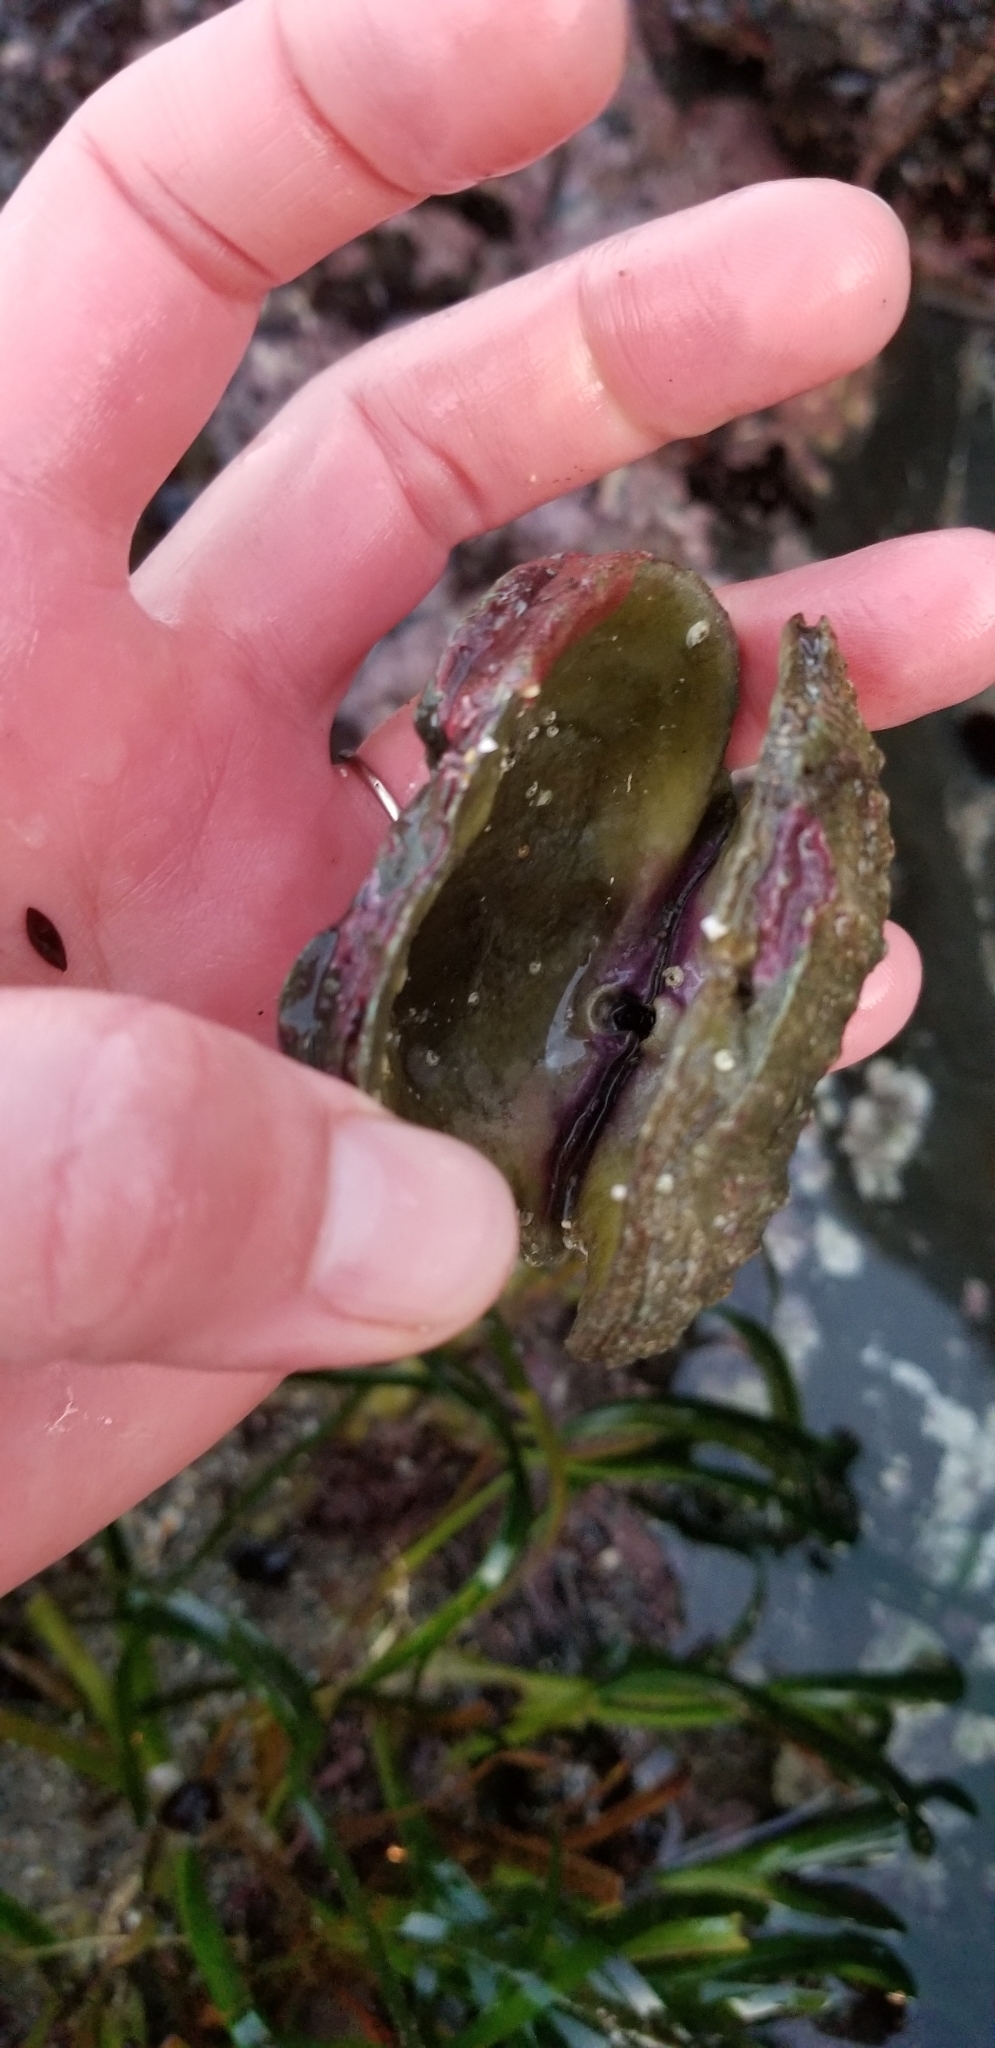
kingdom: Animalia
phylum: Mollusca
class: Bivalvia
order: Pectinida
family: Pectinidae
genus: Crassadoma
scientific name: Crassadoma gigantea
